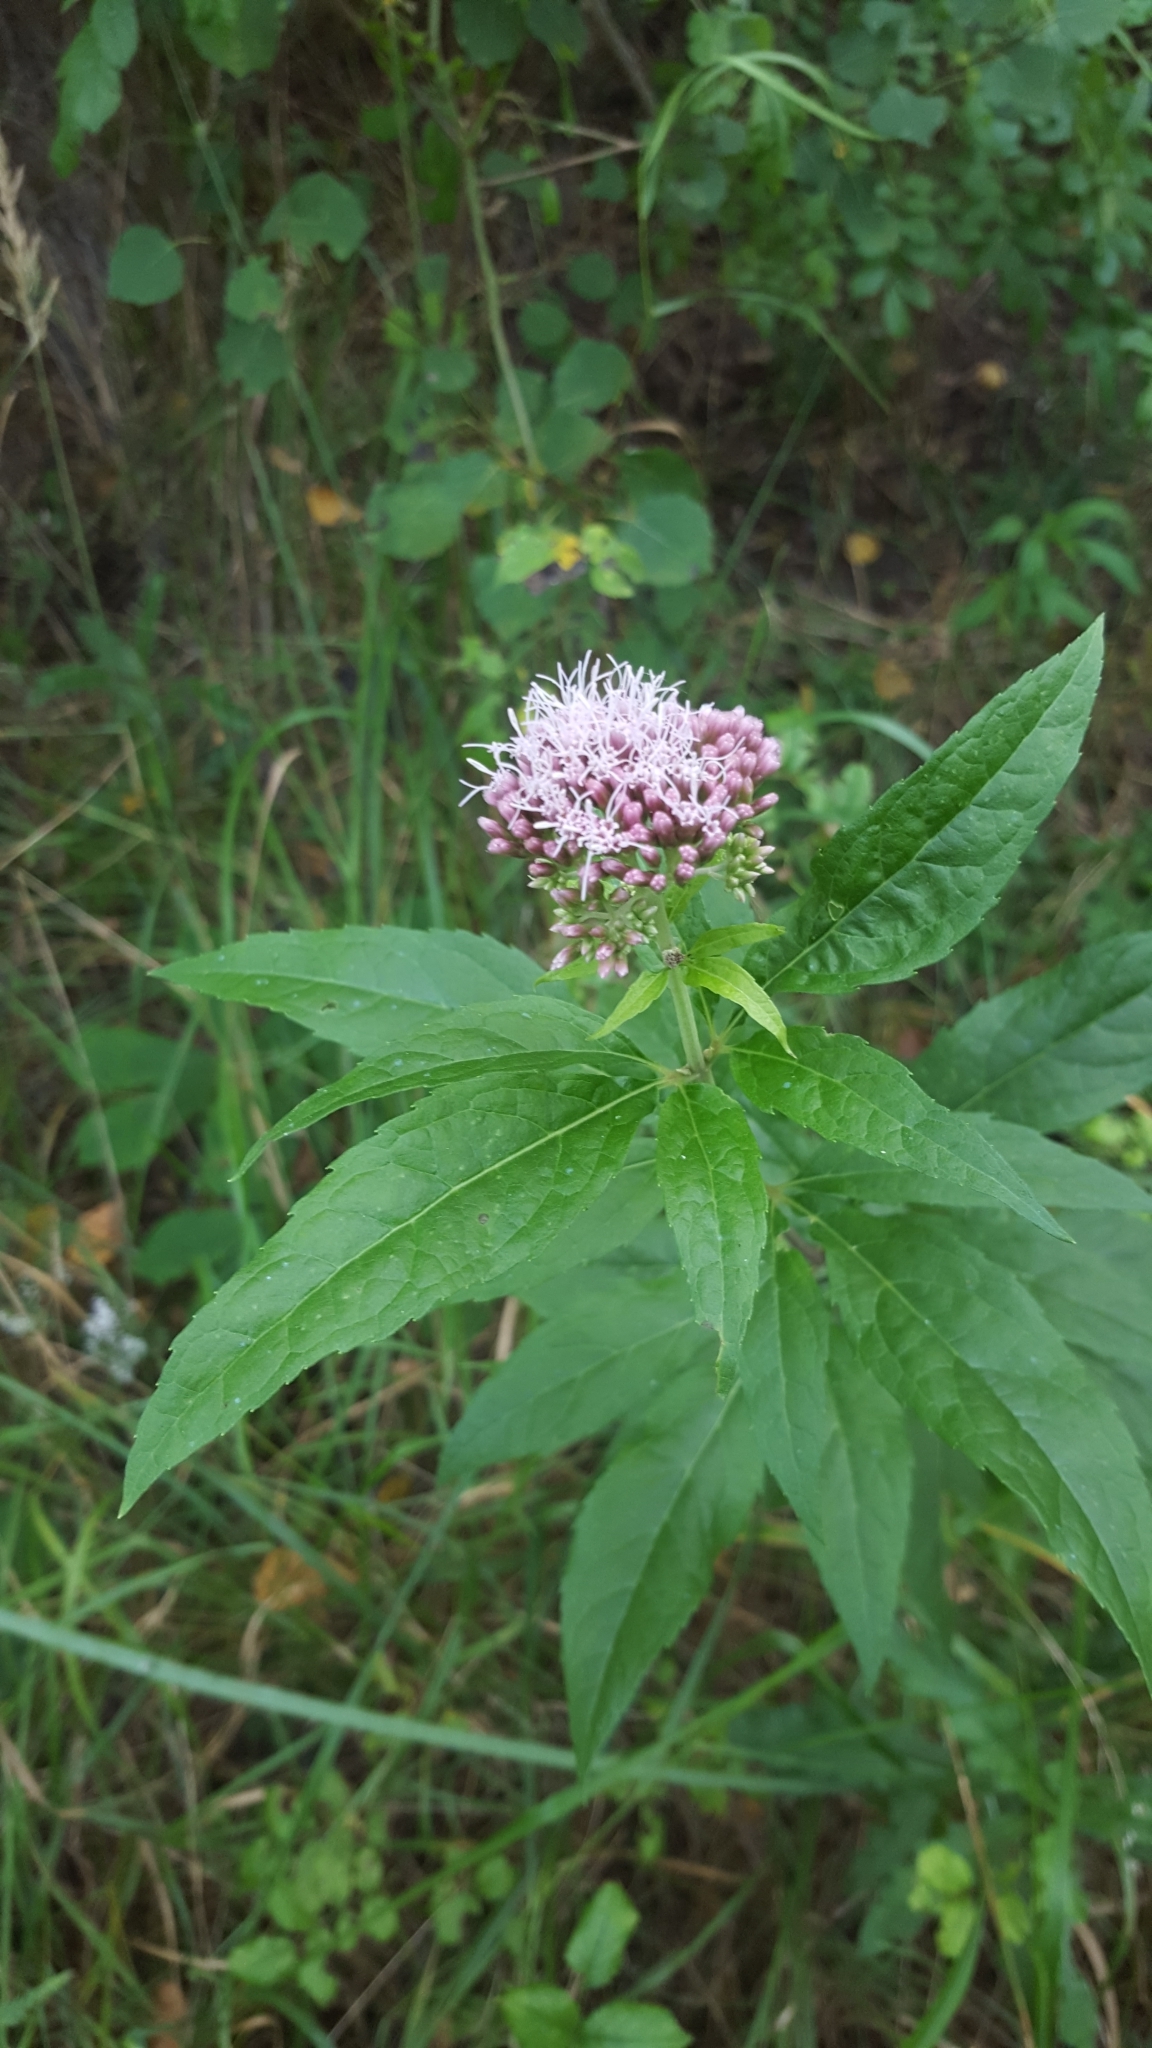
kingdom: Plantae
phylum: Tracheophyta
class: Magnoliopsida
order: Asterales
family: Asteraceae
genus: Eupatorium
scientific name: Eupatorium cannabinum
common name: Hemp-agrimony
